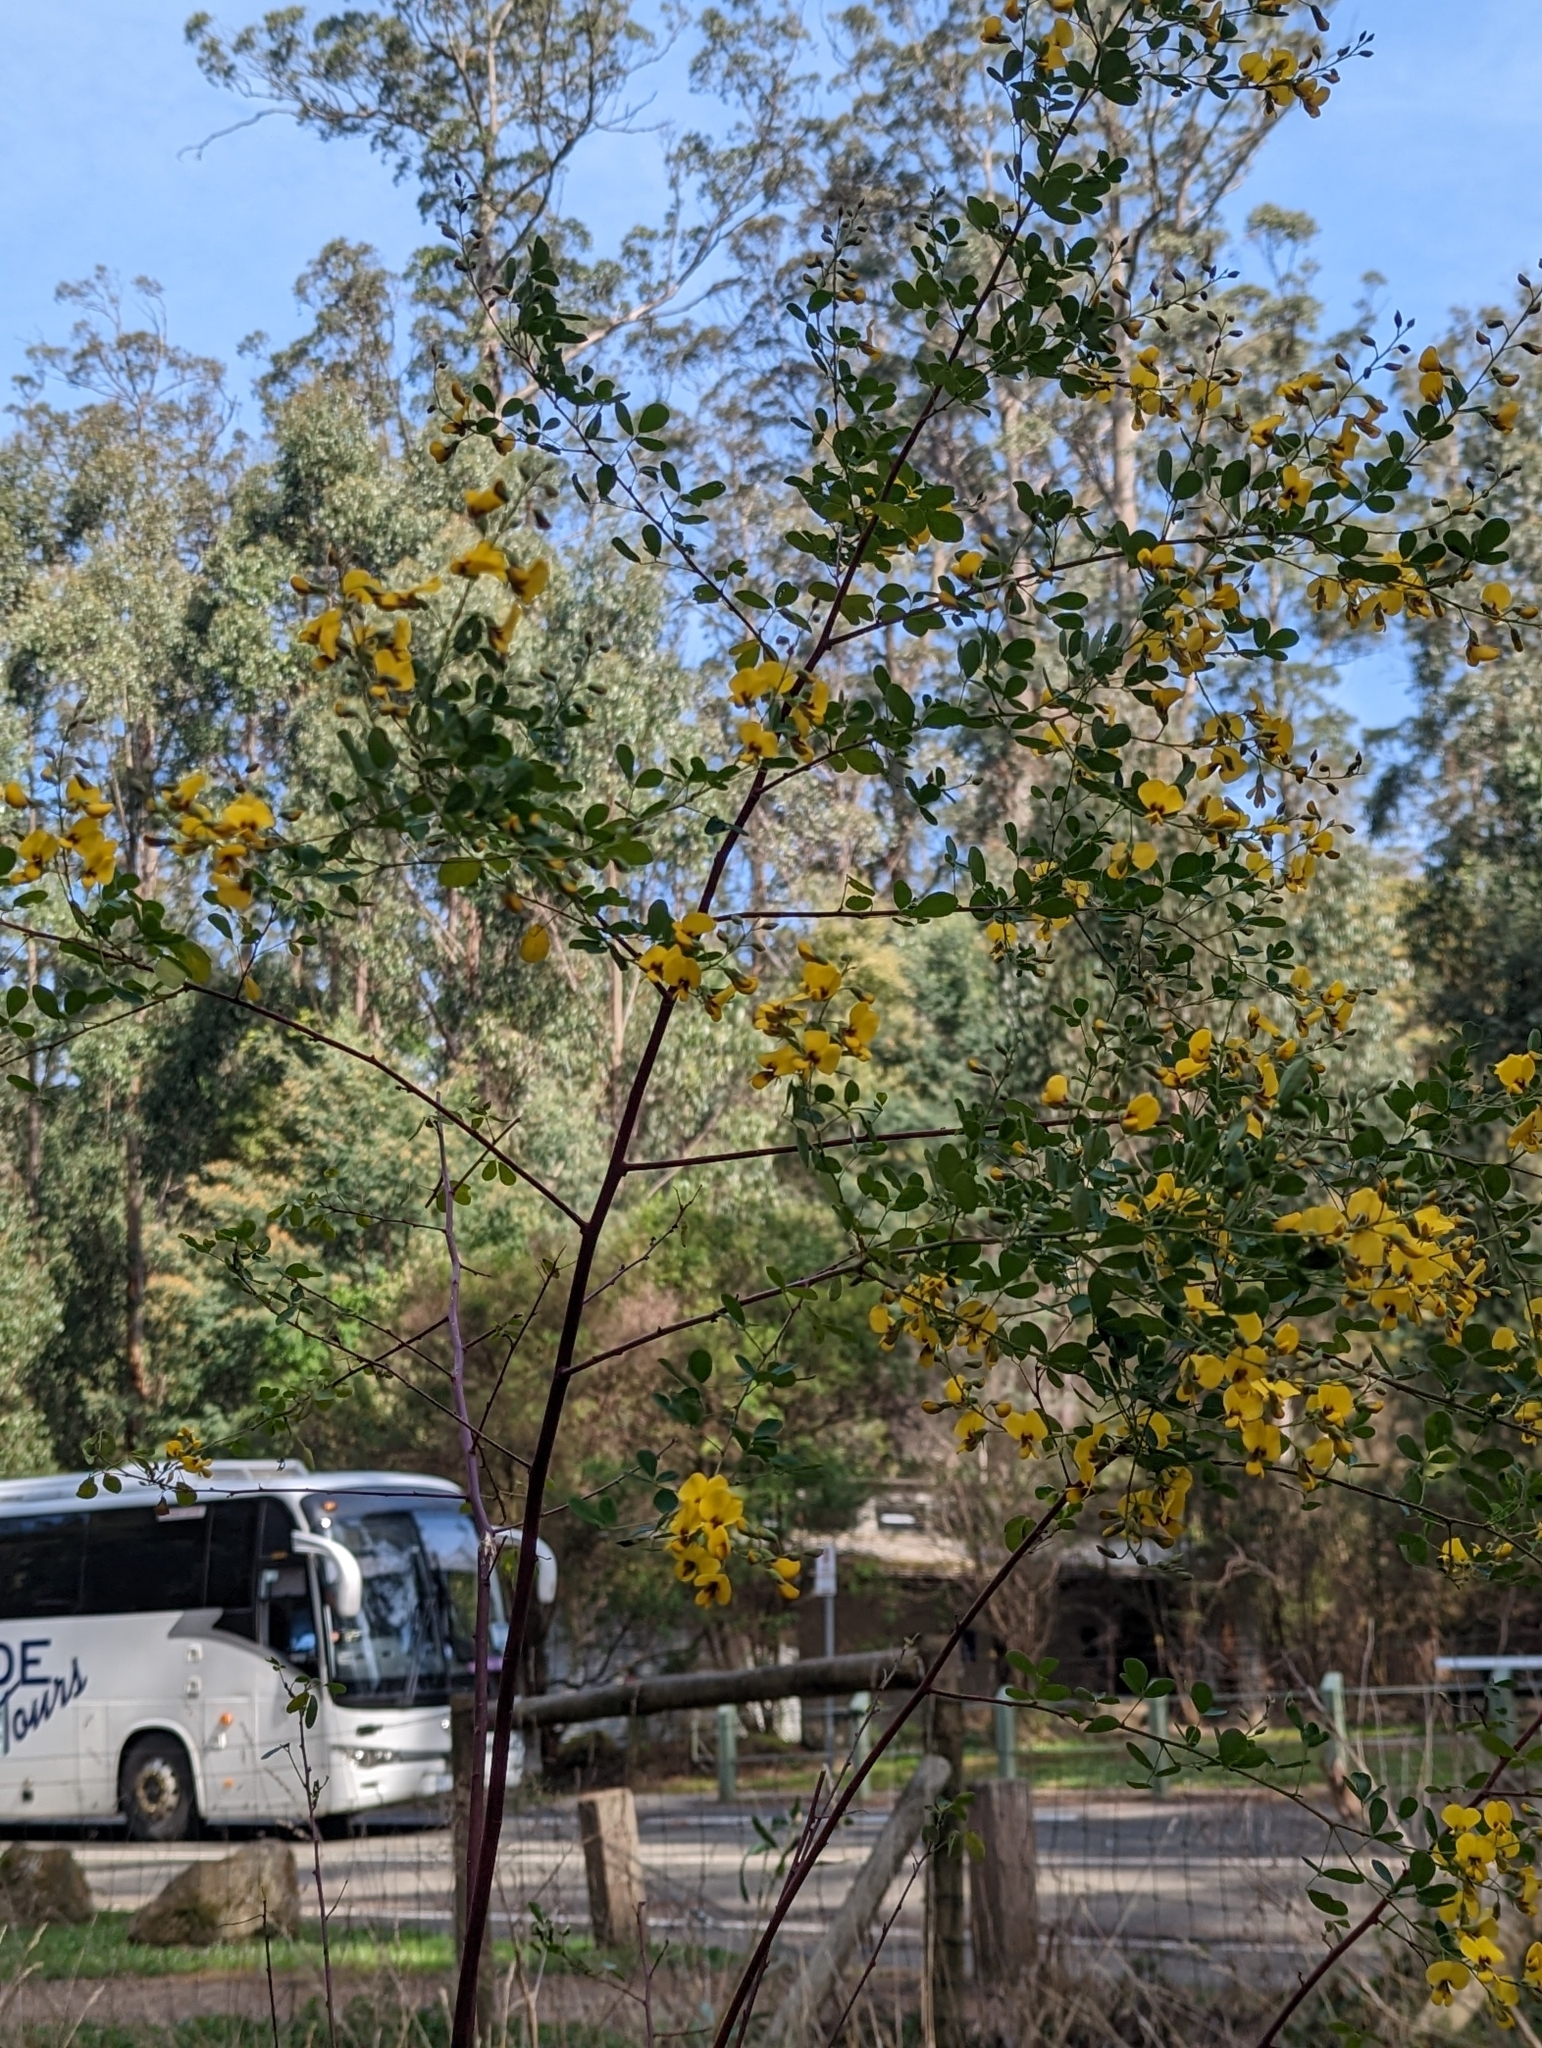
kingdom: Plantae
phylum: Tracheophyta
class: Magnoliopsida
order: Fabales
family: Fabaceae
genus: Goodia
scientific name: Goodia lotifolia
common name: Cloverleaf-poison
